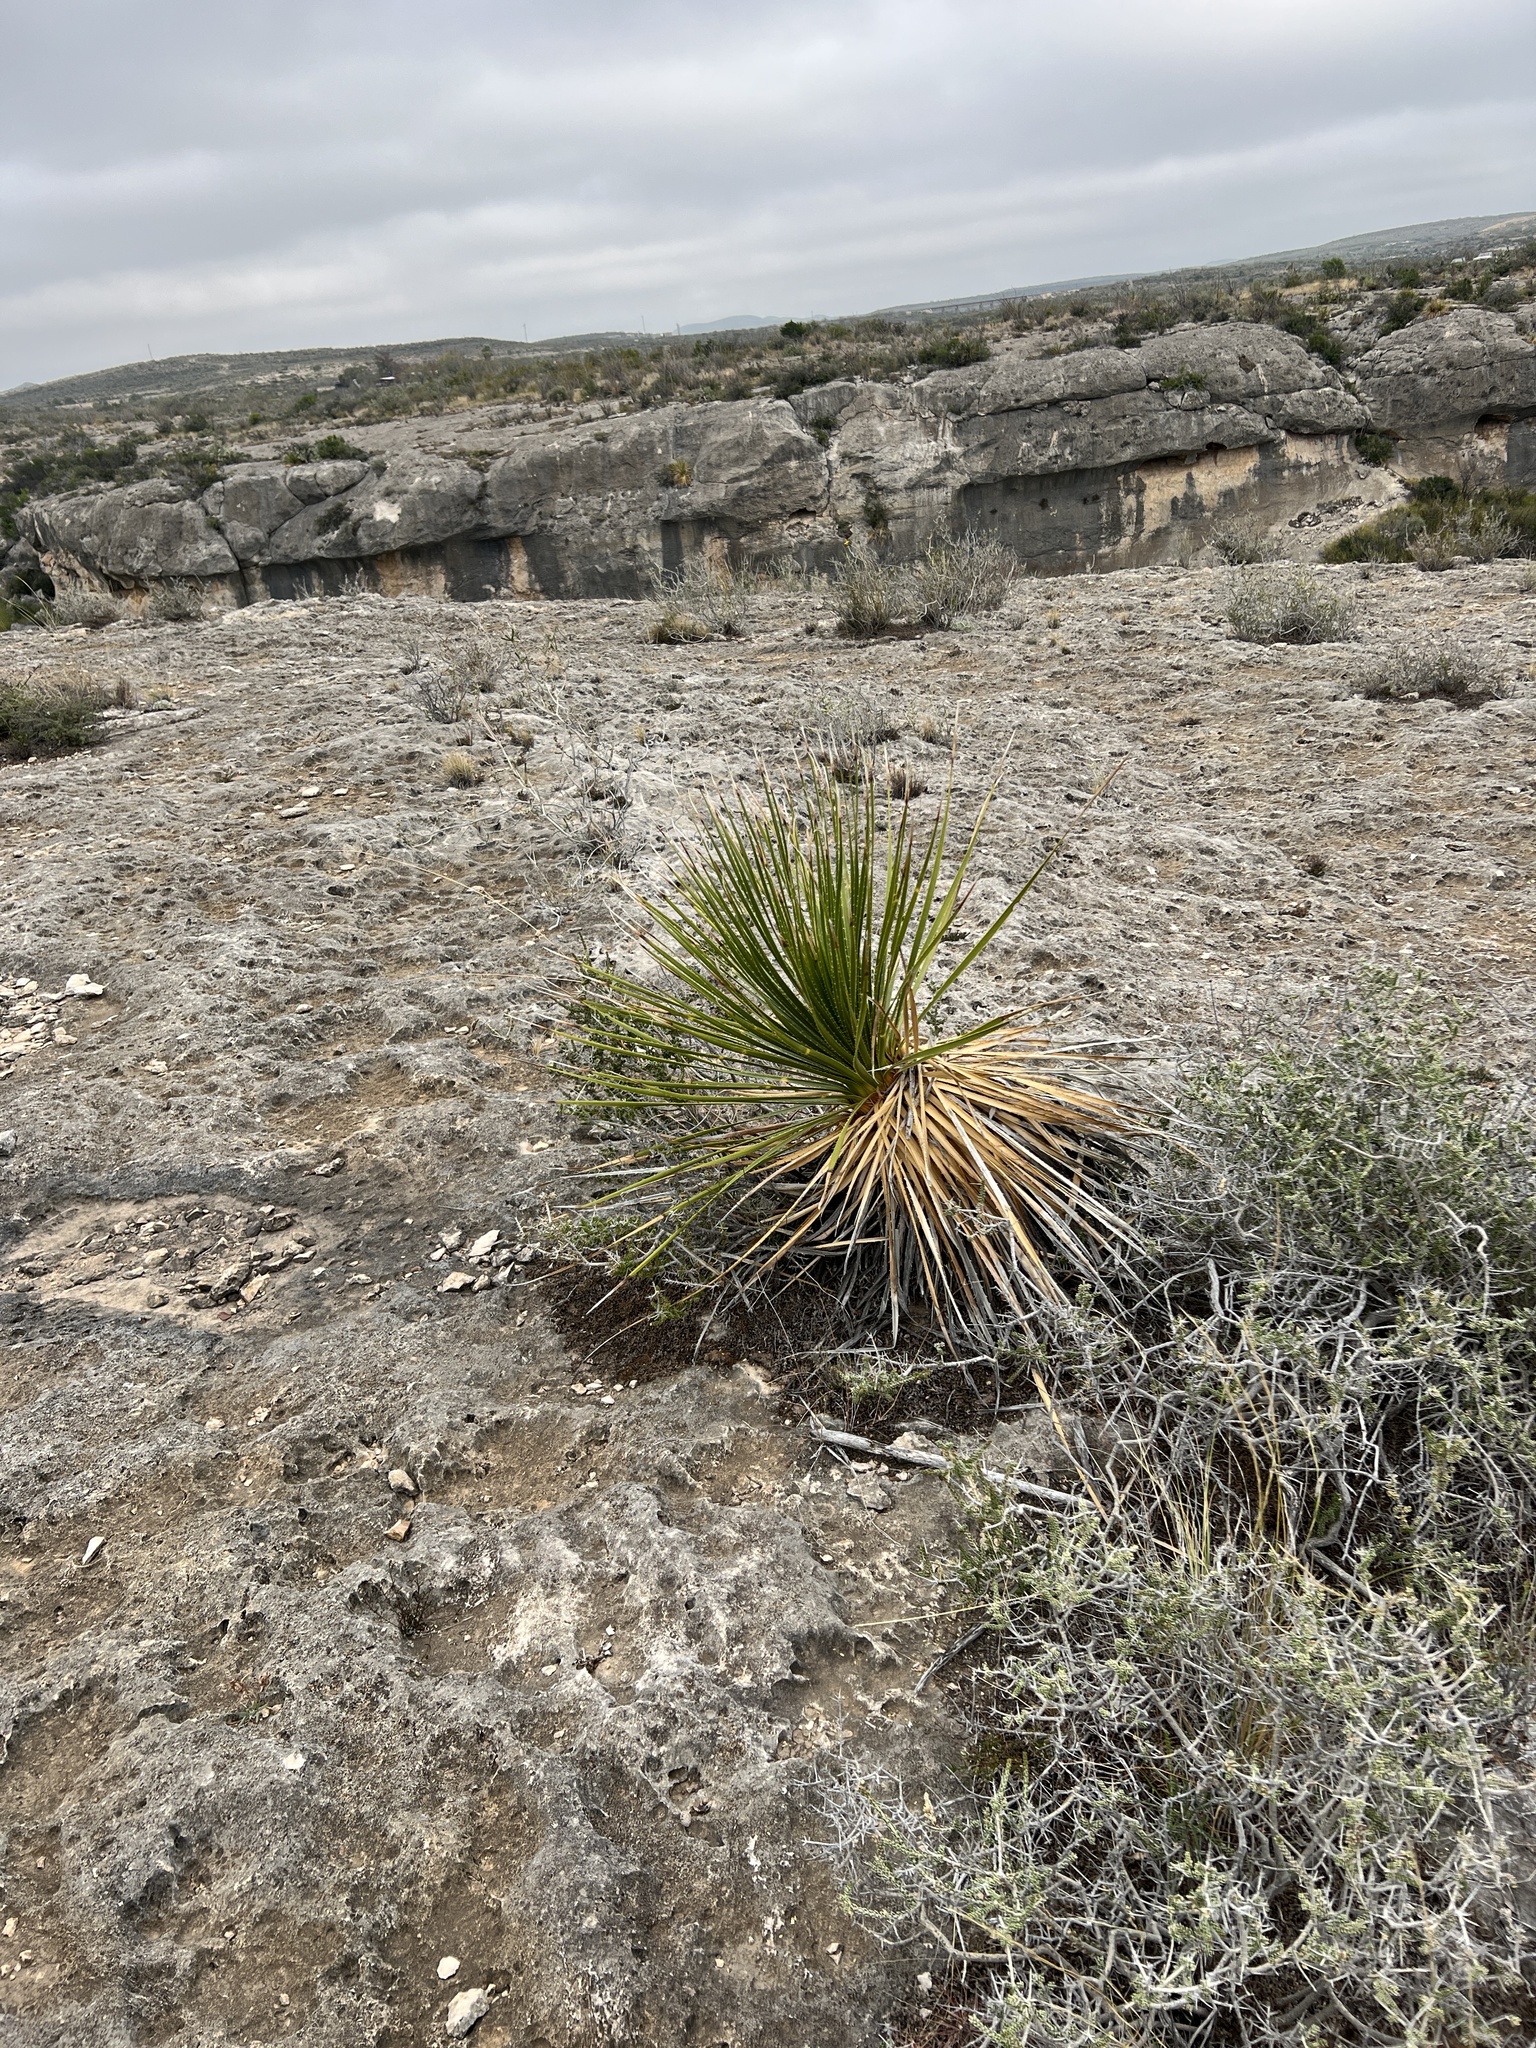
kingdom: Plantae
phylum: Tracheophyta
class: Liliopsida
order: Asparagales
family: Asparagaceae
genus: Dasylirion
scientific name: Dasylirion texanum
